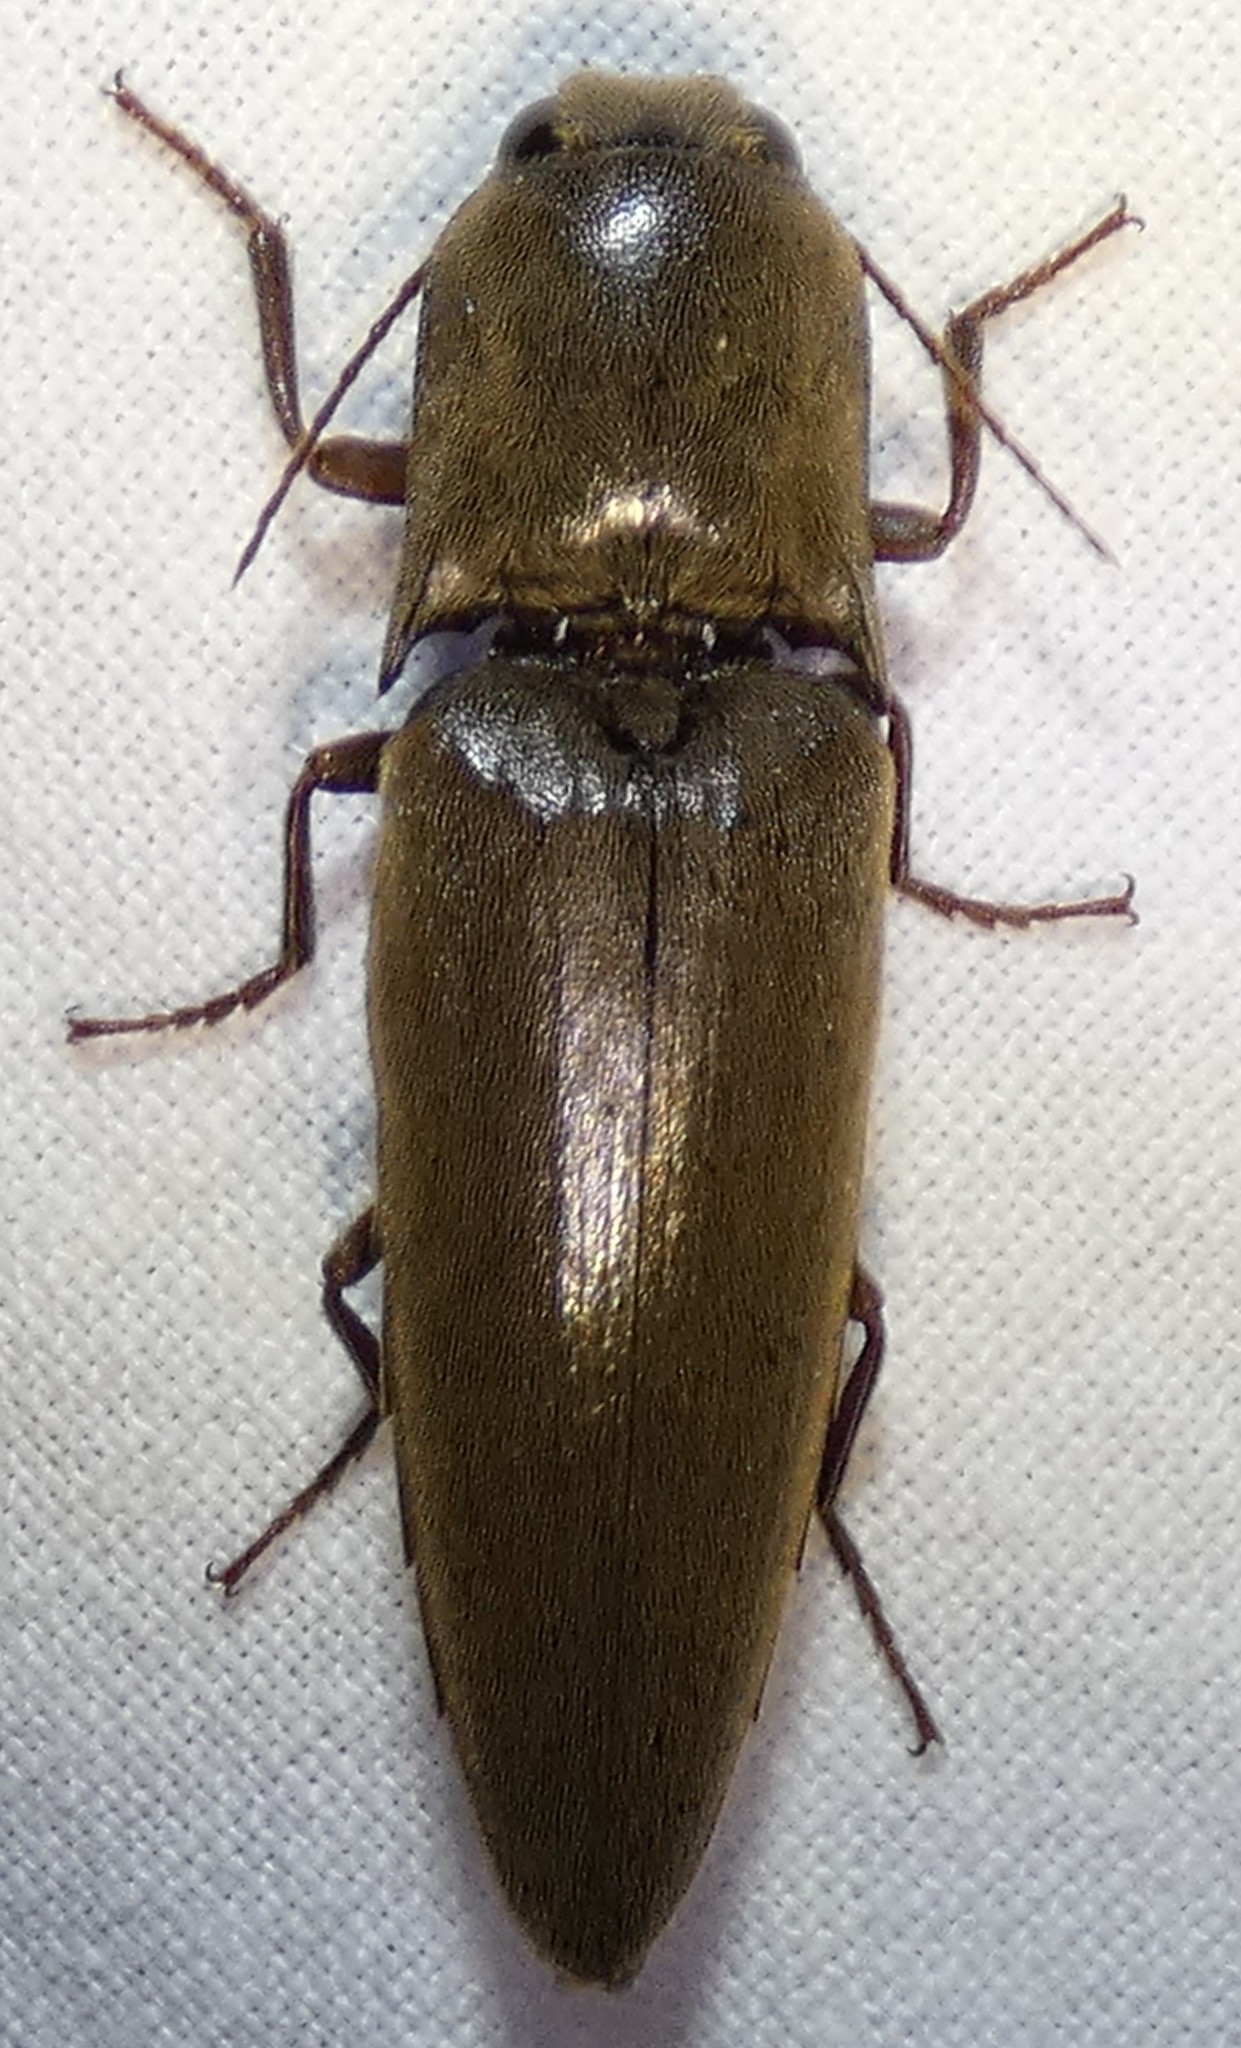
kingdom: Animalia
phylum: Arthropoda
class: Insecta
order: Coleoptera
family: Elateridae
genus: Orthostethus
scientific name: Orthostethus infuscatus
